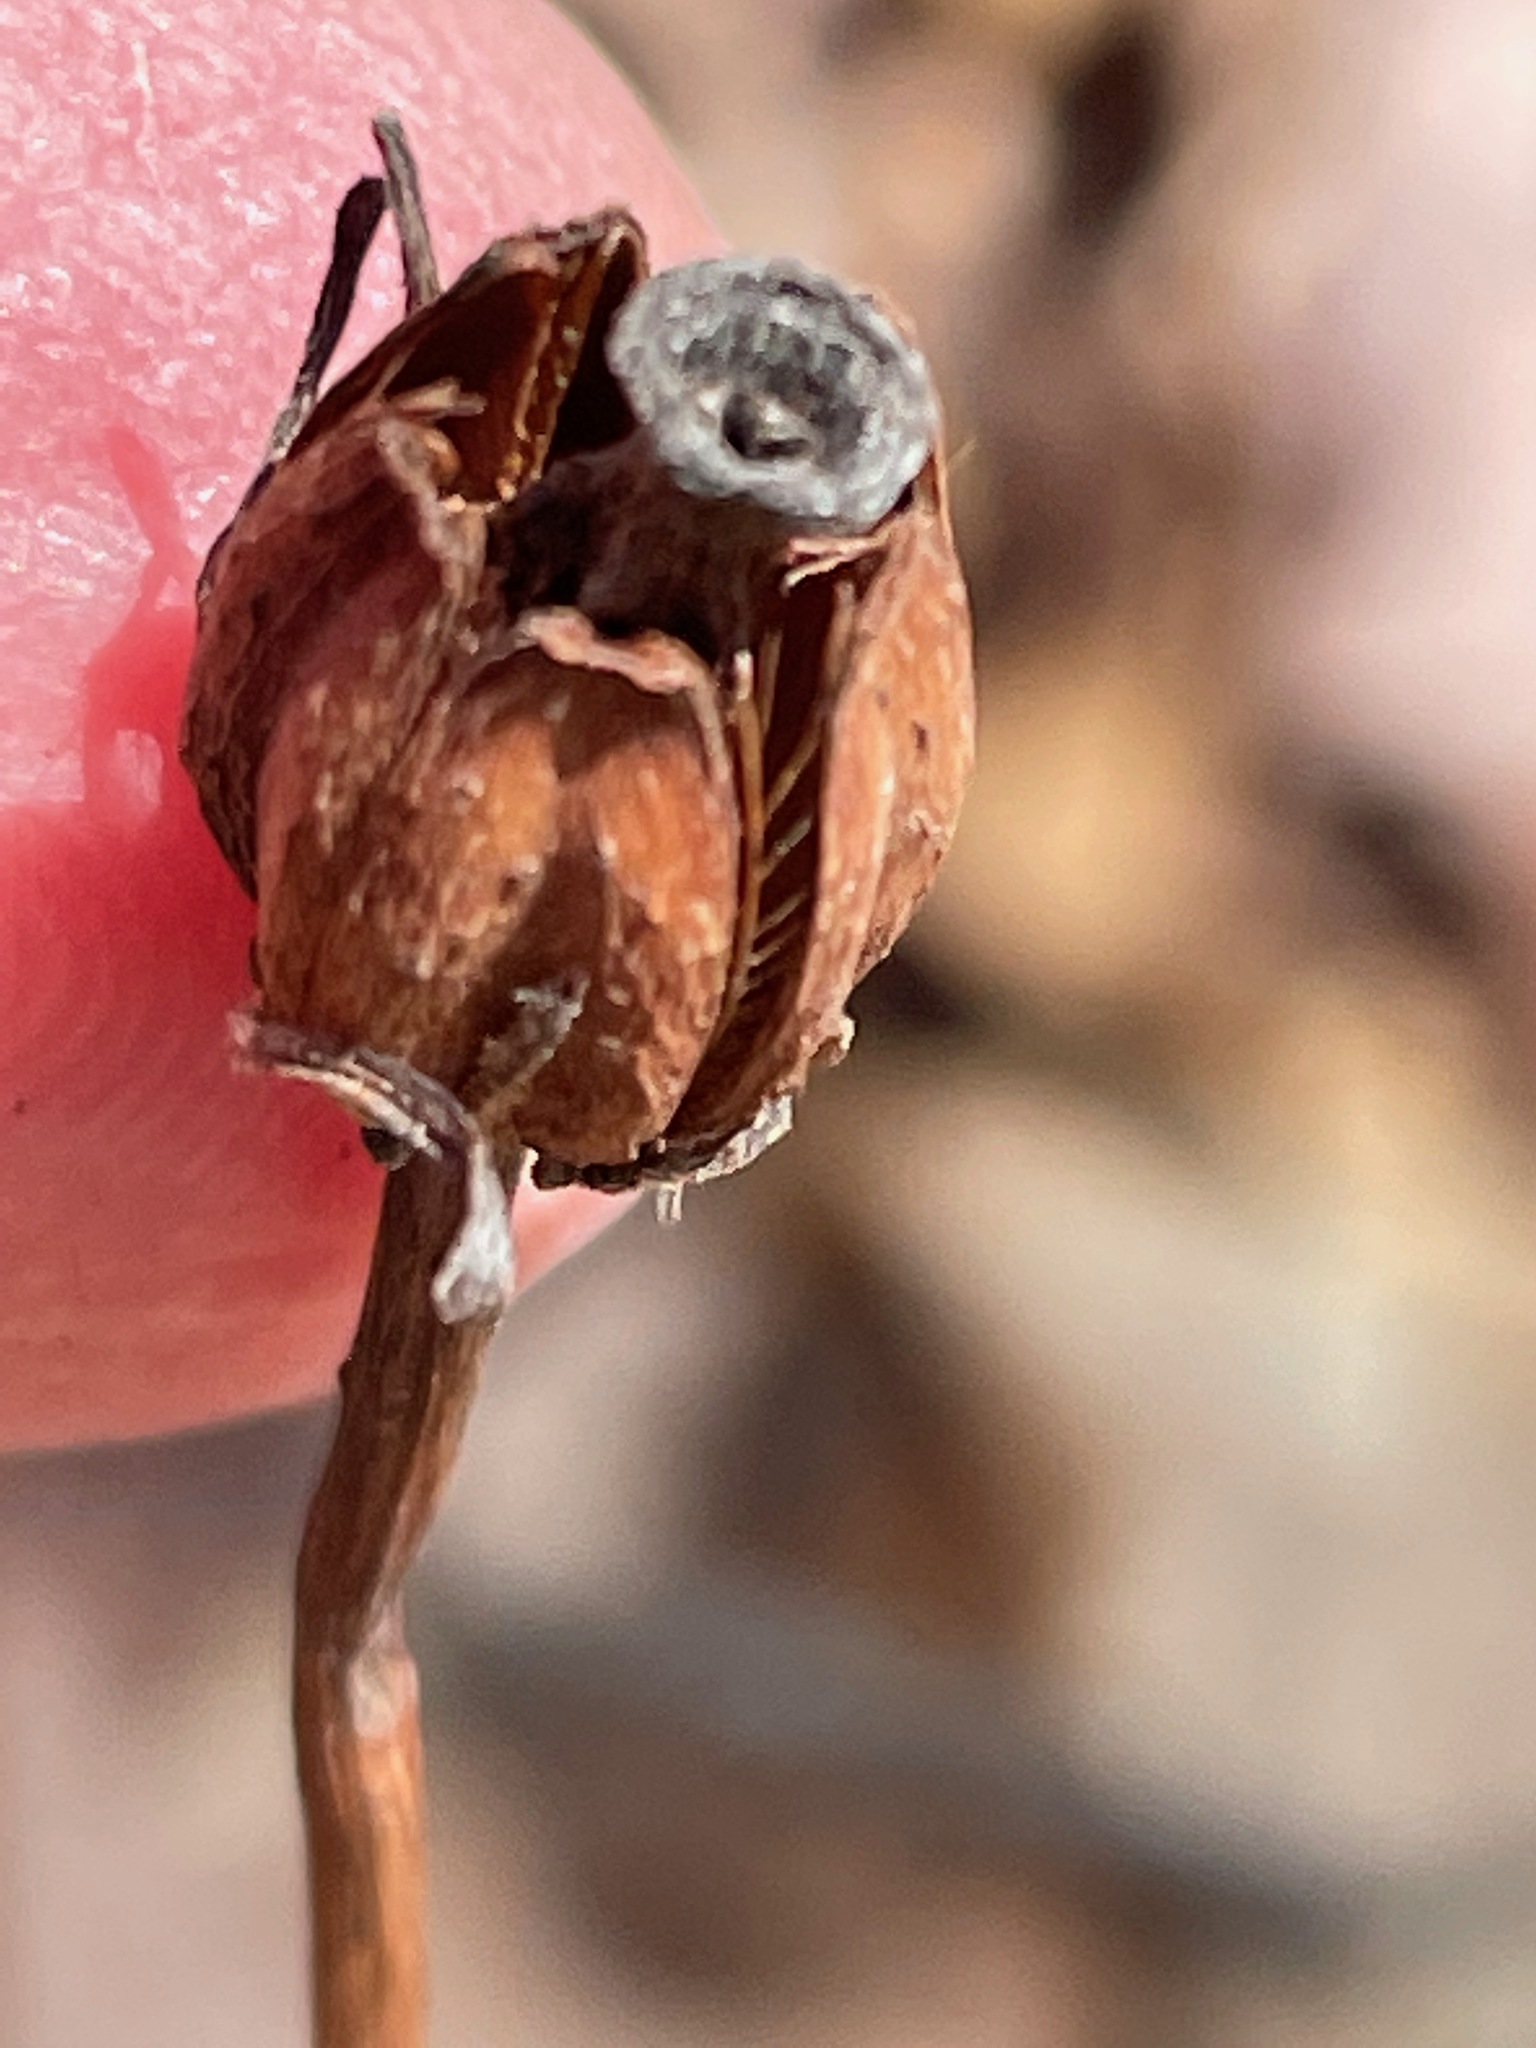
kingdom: Plantae
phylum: Tracheophyta
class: Magnoliopsida
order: Ericales
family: Ericaceae
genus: Monotropa
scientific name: Monotropa uniflora
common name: Convulsion root
